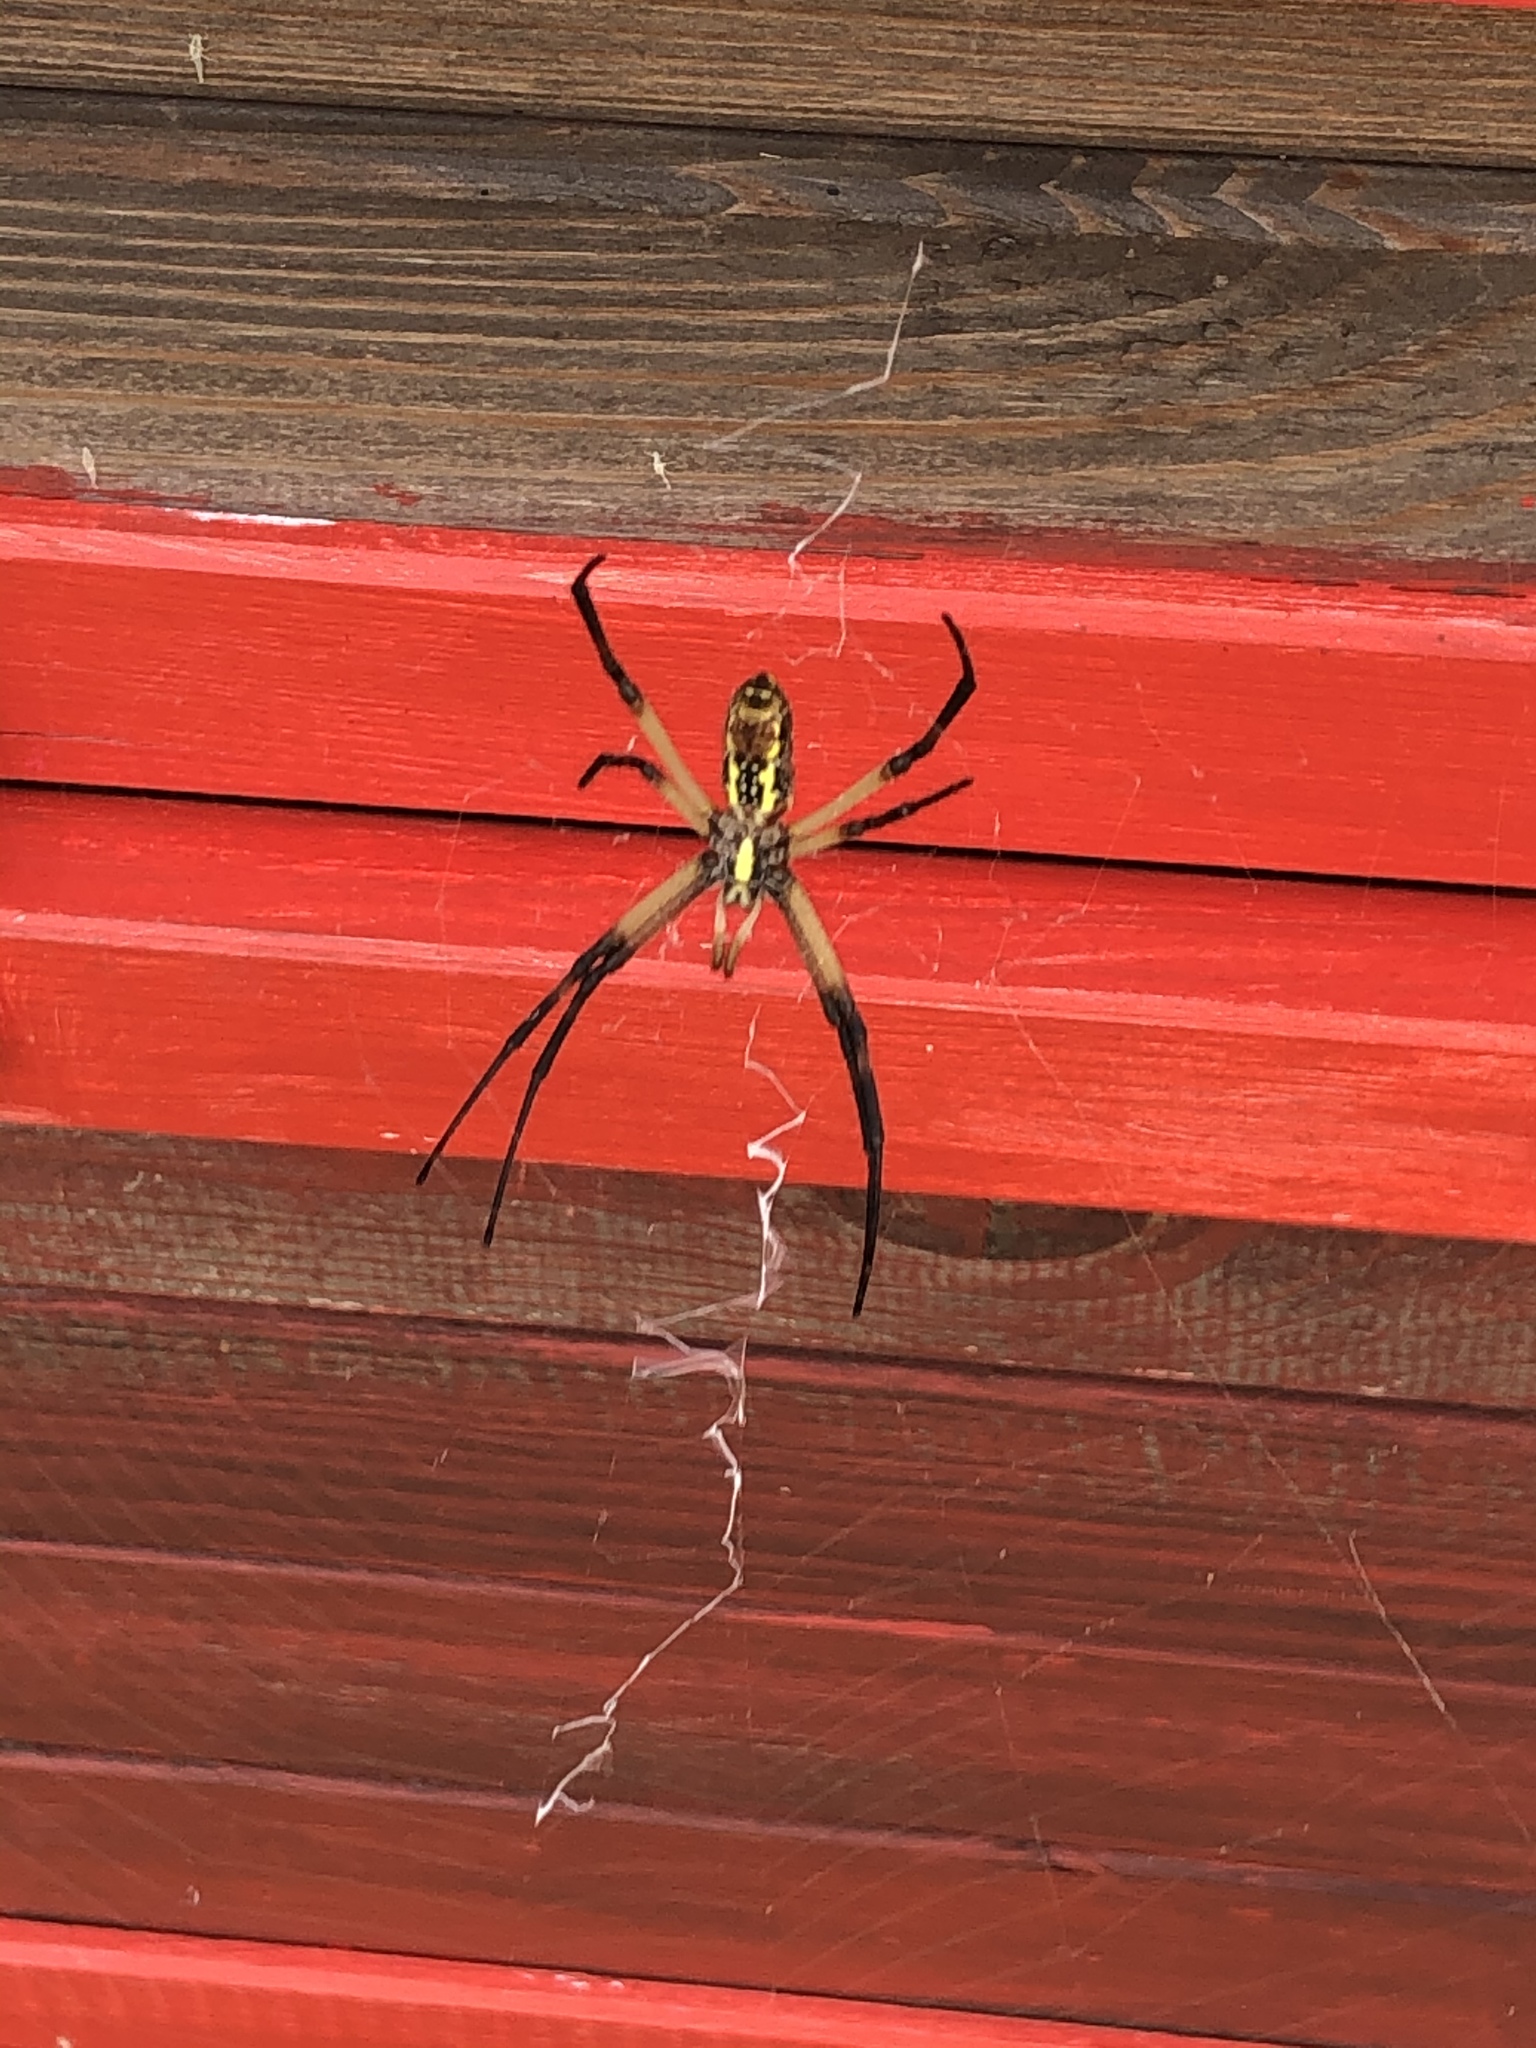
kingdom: Animalia
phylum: Arthropoda
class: Arachnida
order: Araneae
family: Araneidae
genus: Argiope
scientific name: Argiope aurantia
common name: Orb weavers
